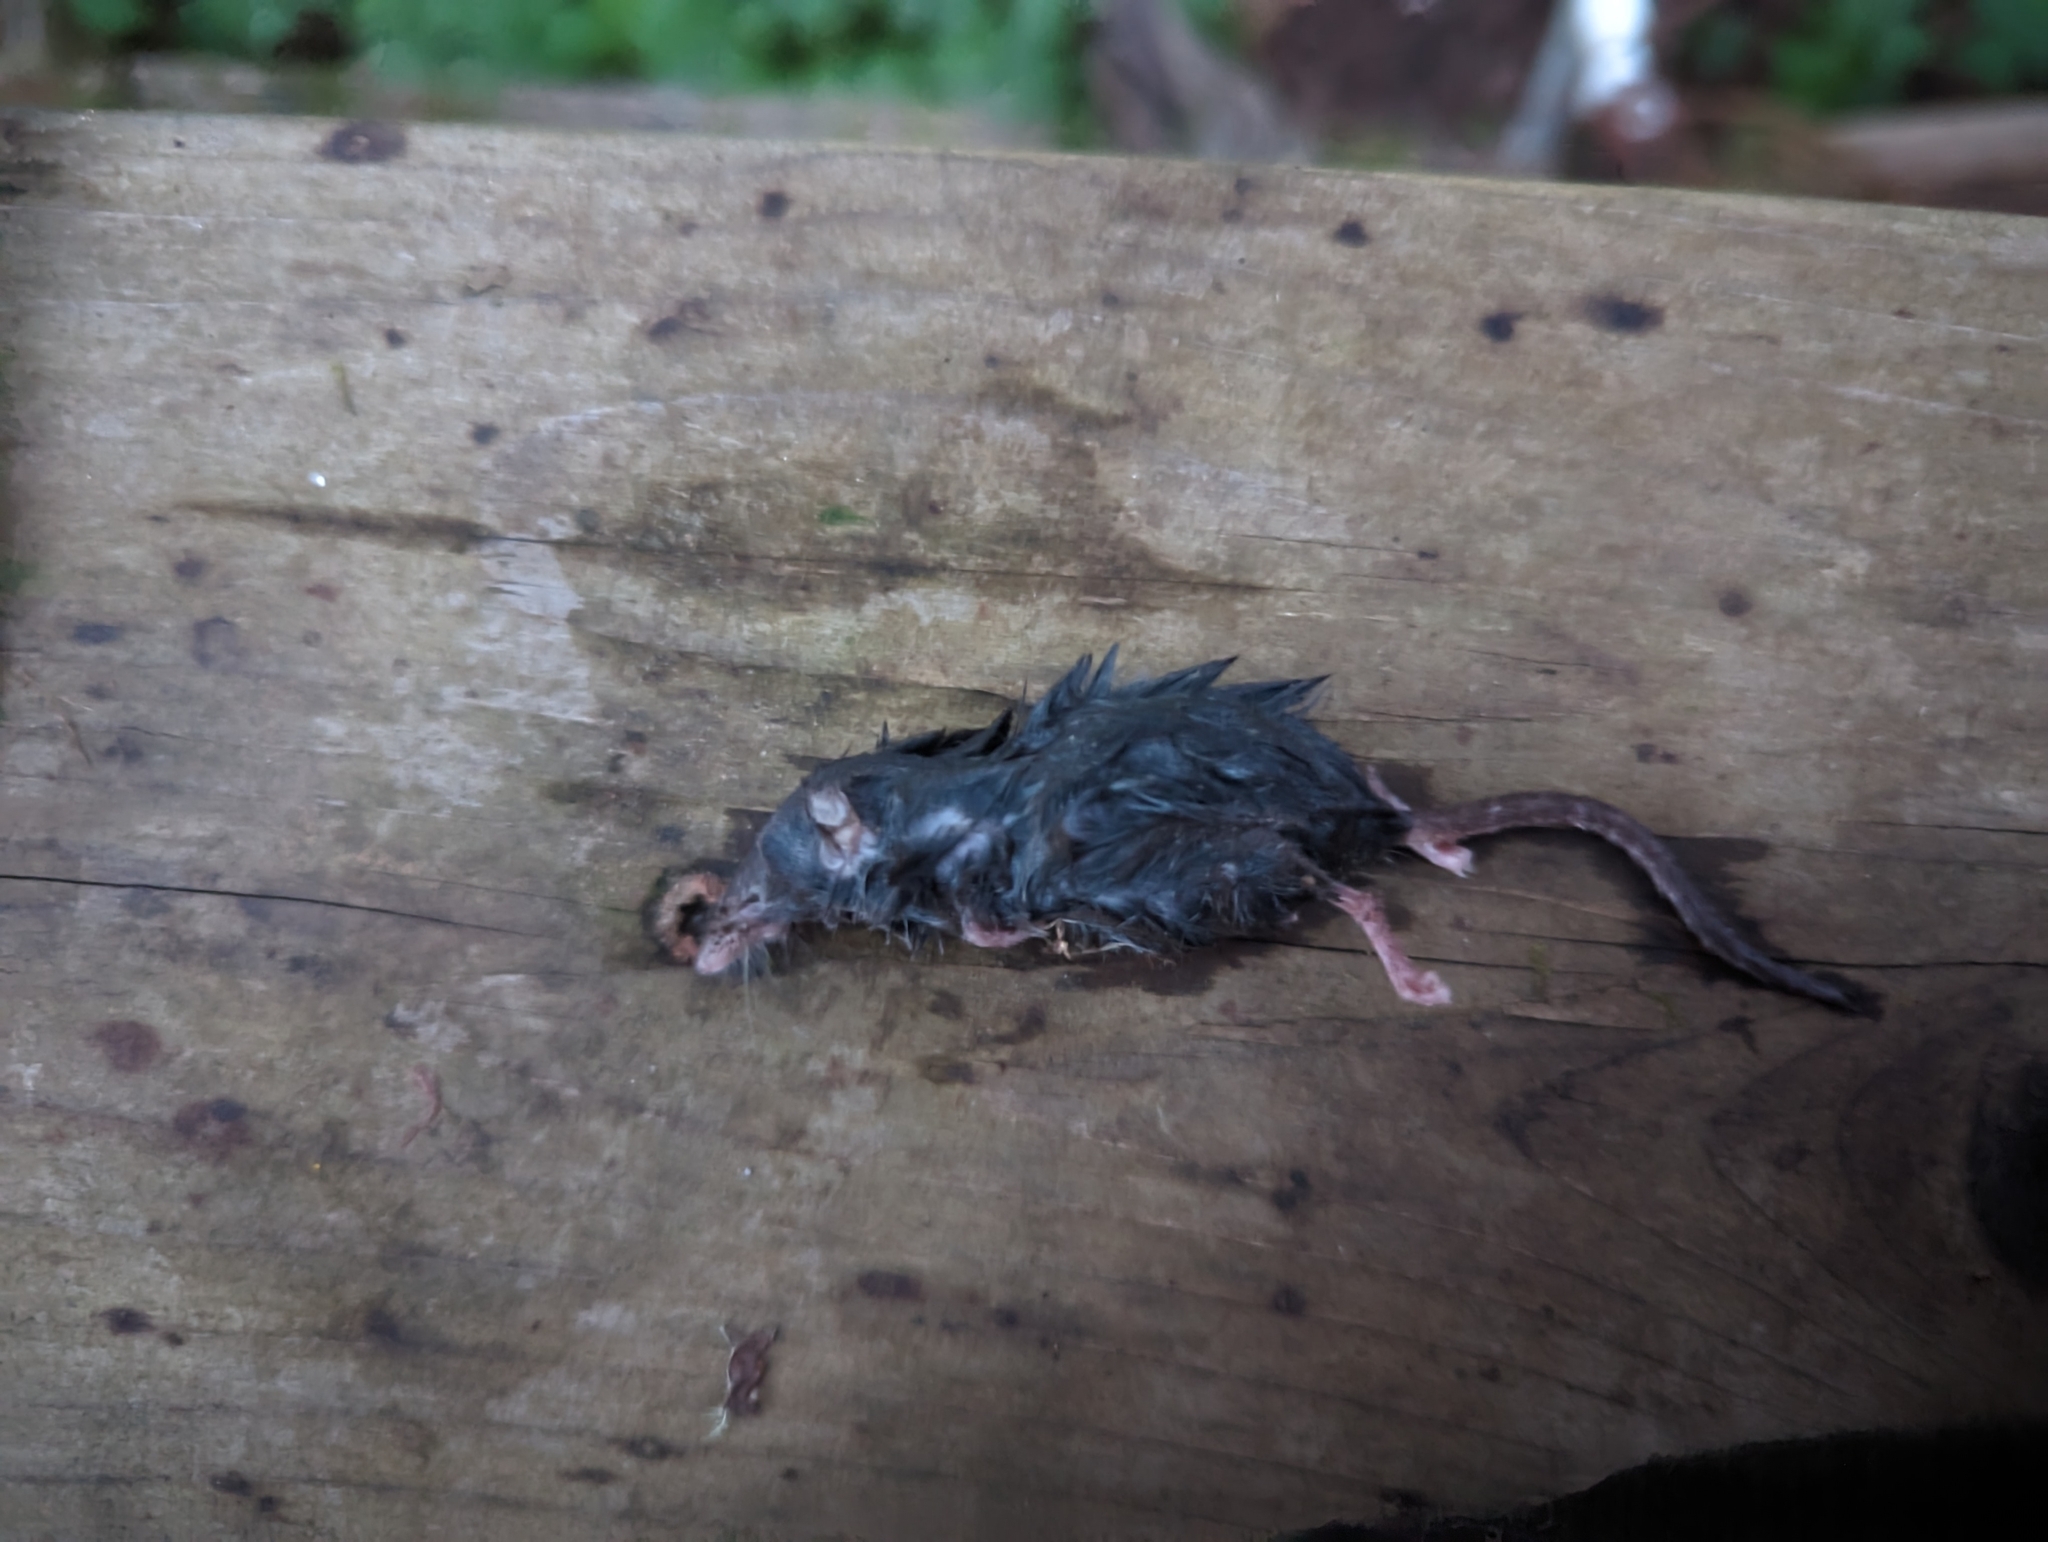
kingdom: Animalia
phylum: Chordata
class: Mammalia
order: Soricomorpha
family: Soricidae
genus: Sorex
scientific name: Sorex trowbridgii
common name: Trowbridge's shrew
